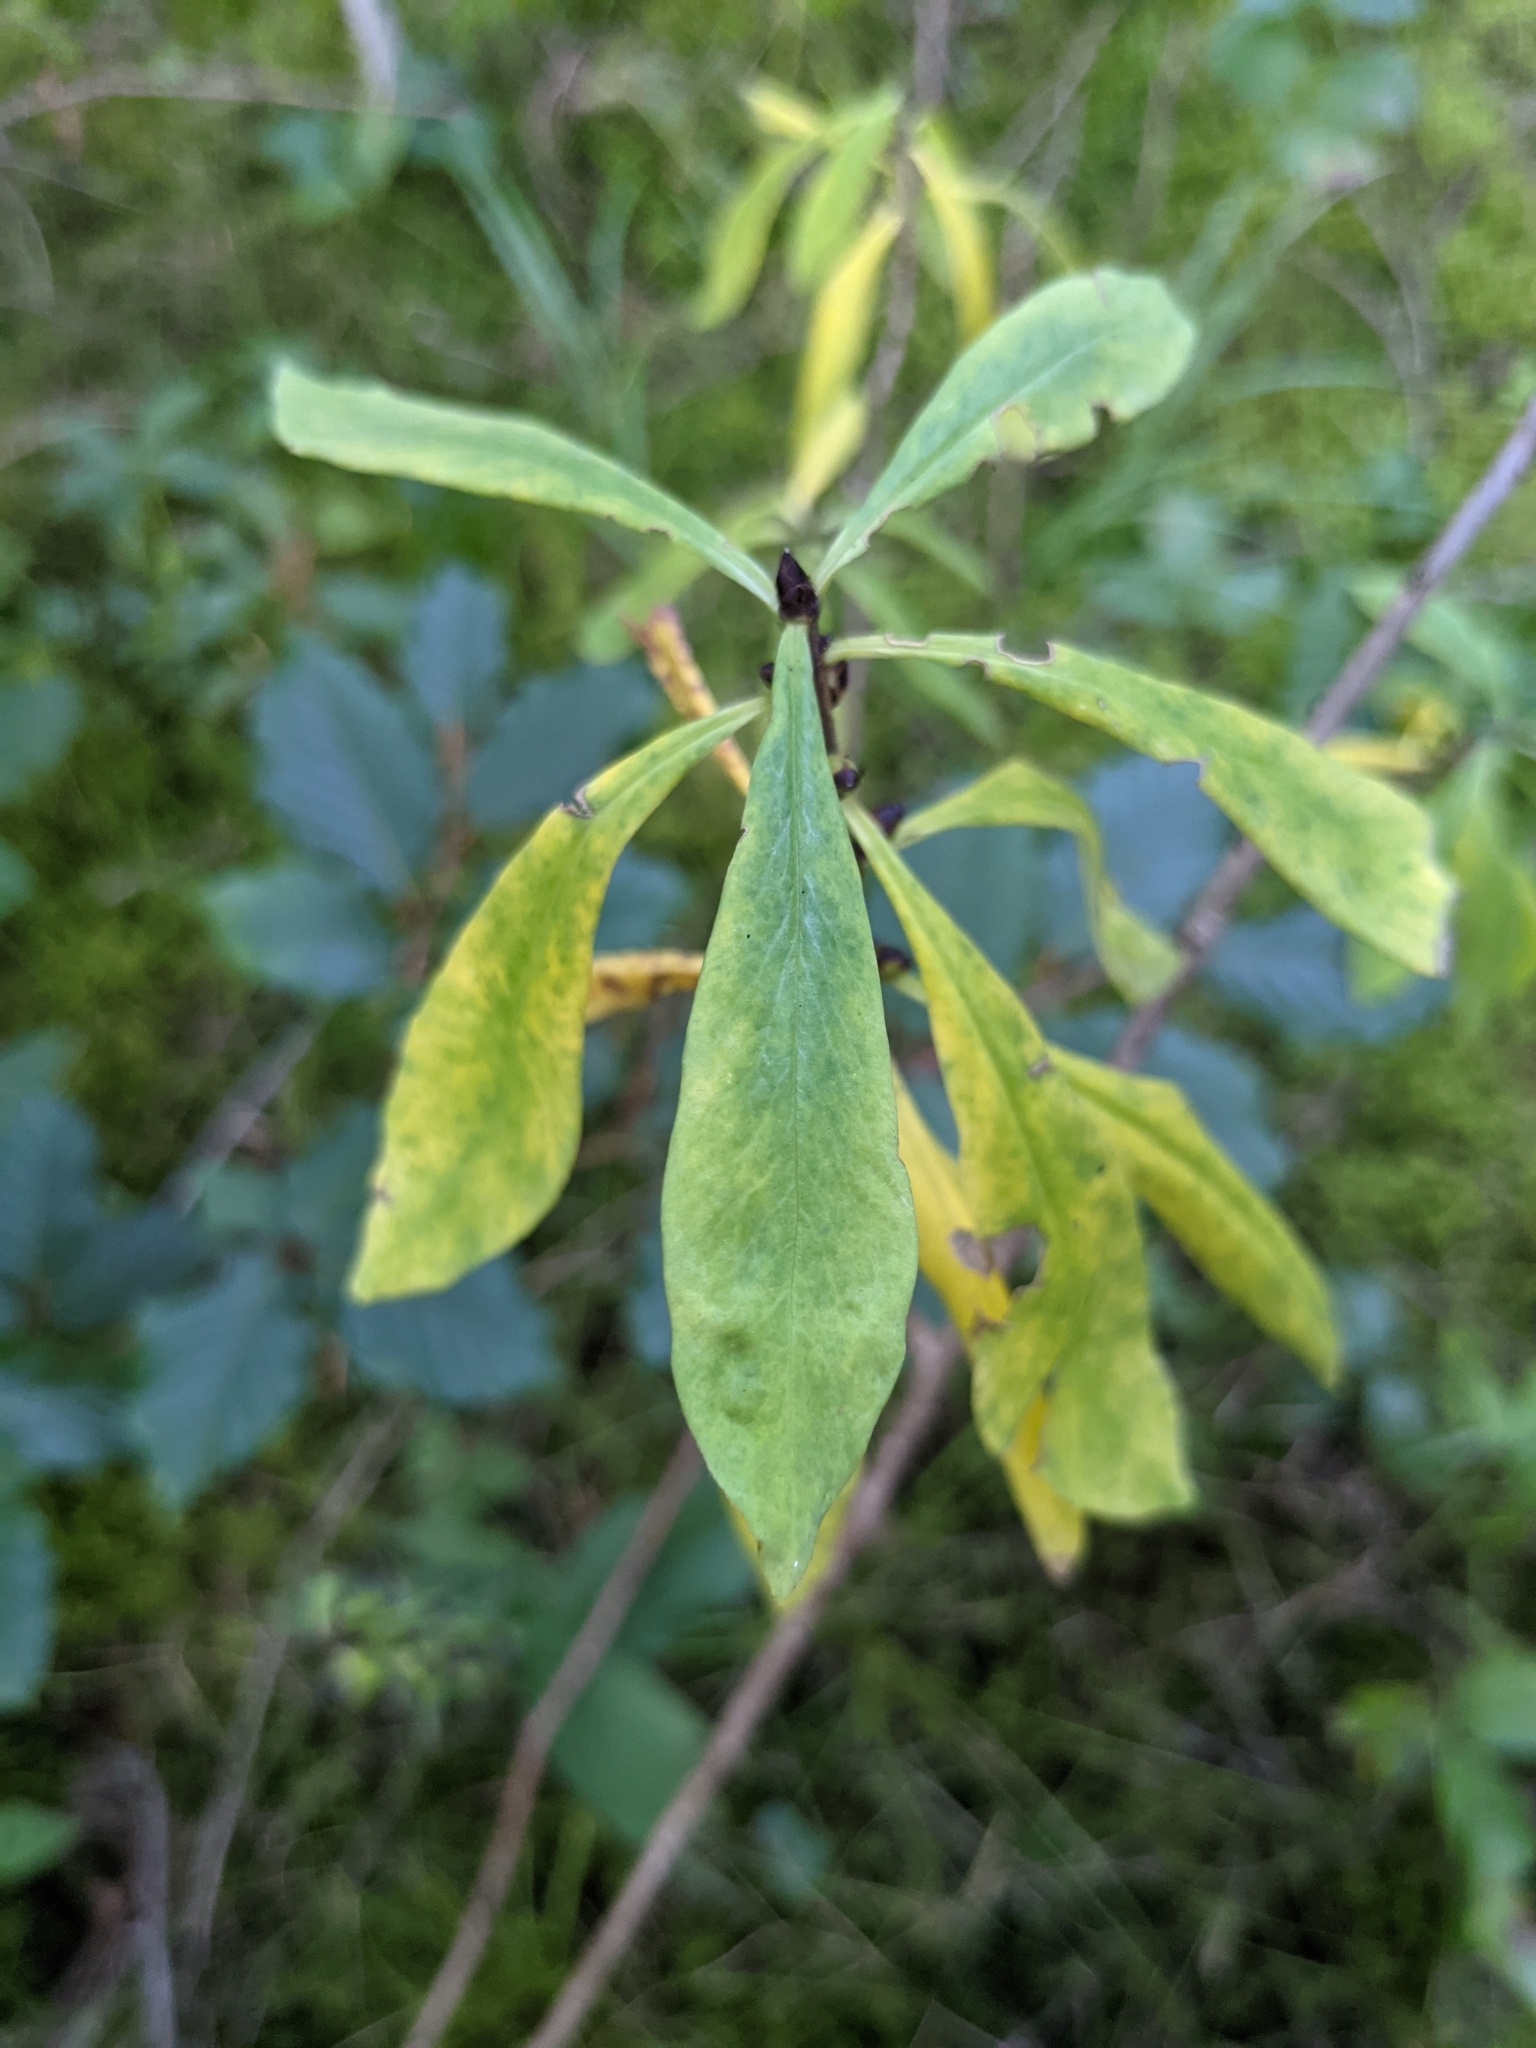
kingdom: Plantae
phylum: Tracheophyta
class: Magnoliopsida
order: Malvales
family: Thymelaeaceae
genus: Daphne
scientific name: Daphne mezereum
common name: Mezereon
